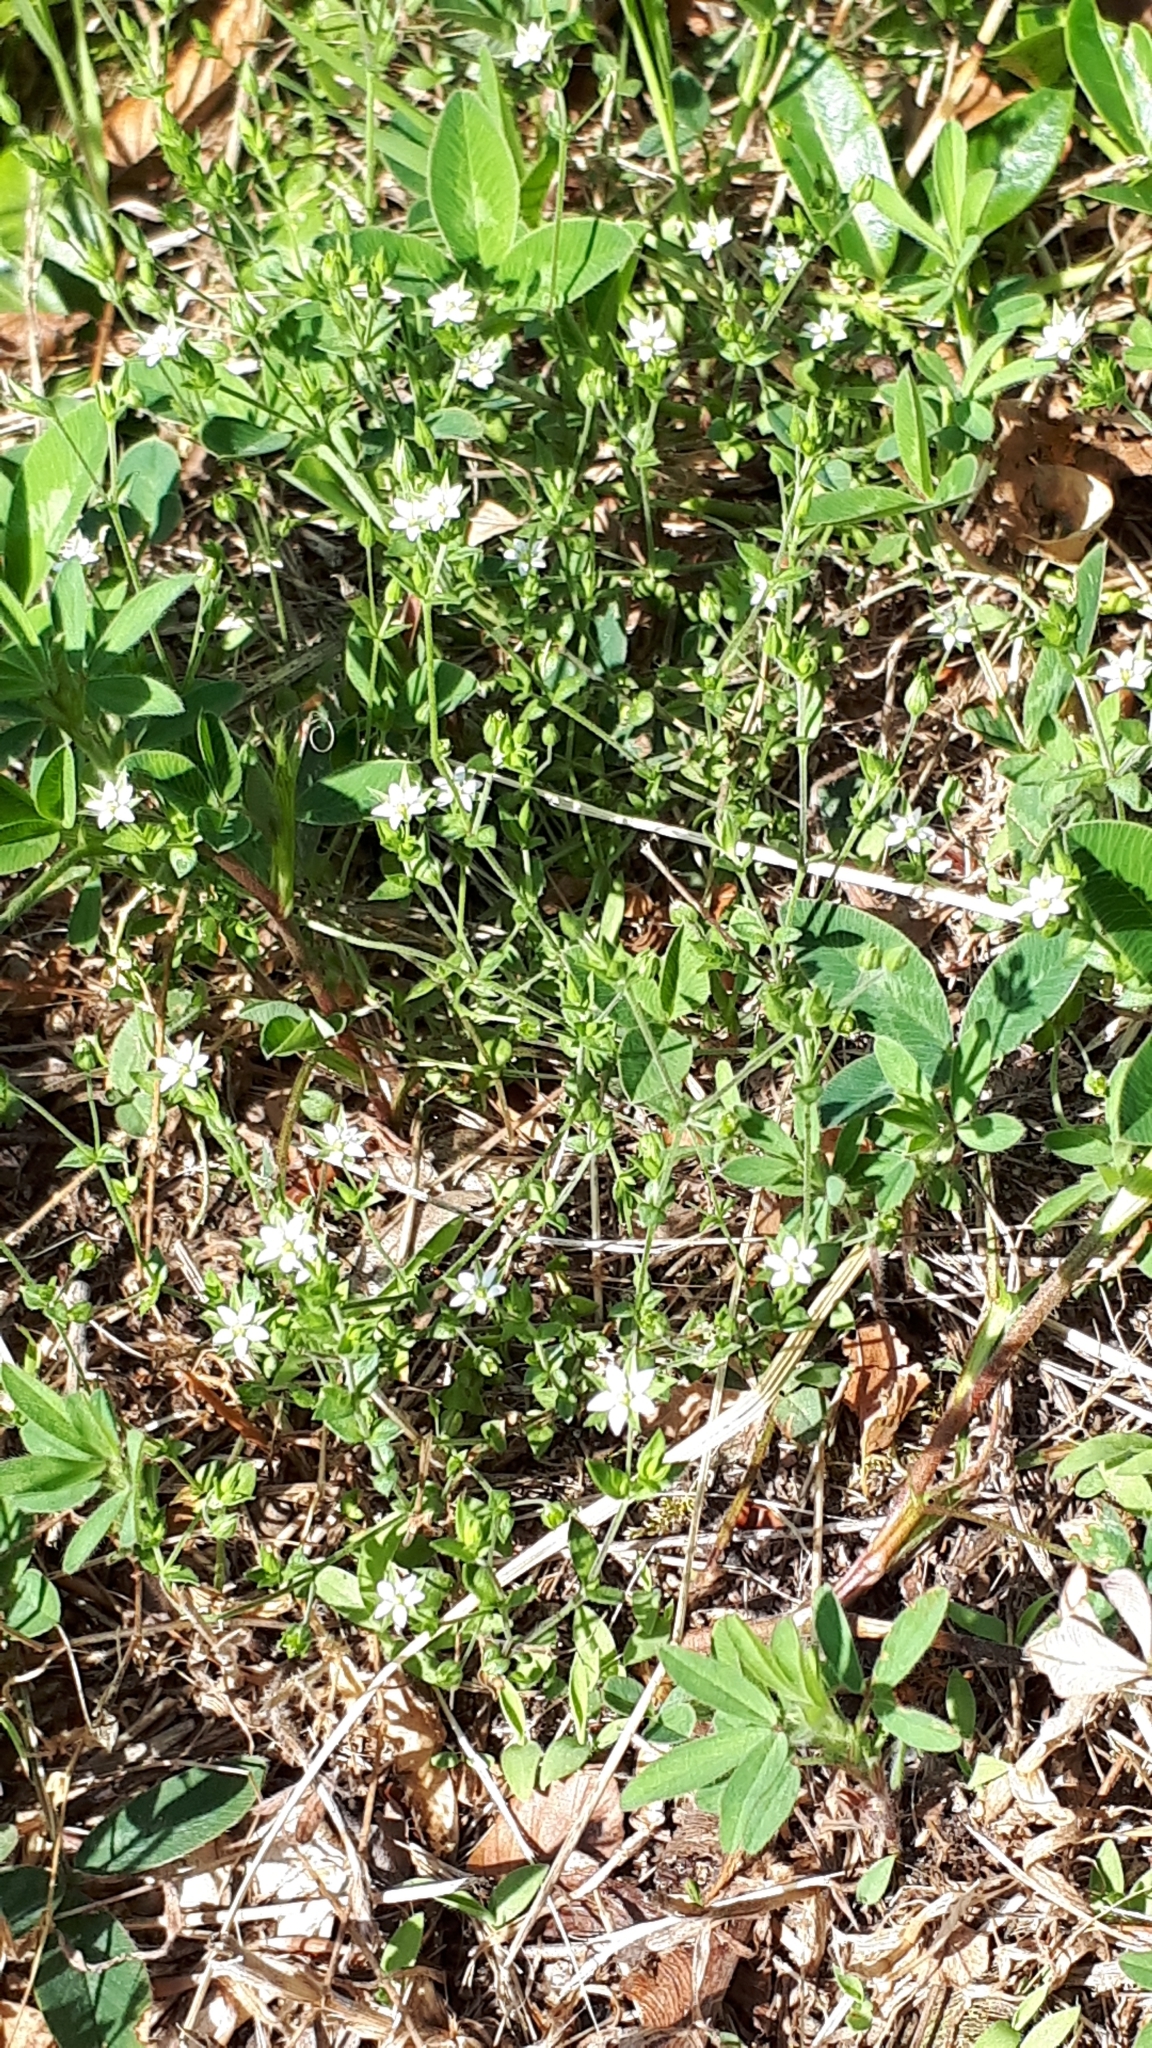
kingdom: Plantae
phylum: Tracheophyta
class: Magnoliopsida
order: Caryophyllales
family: Caryophyllaceae
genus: Arenaria
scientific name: Arenaria serpyllifolia
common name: Thyme-leaved sandwort
